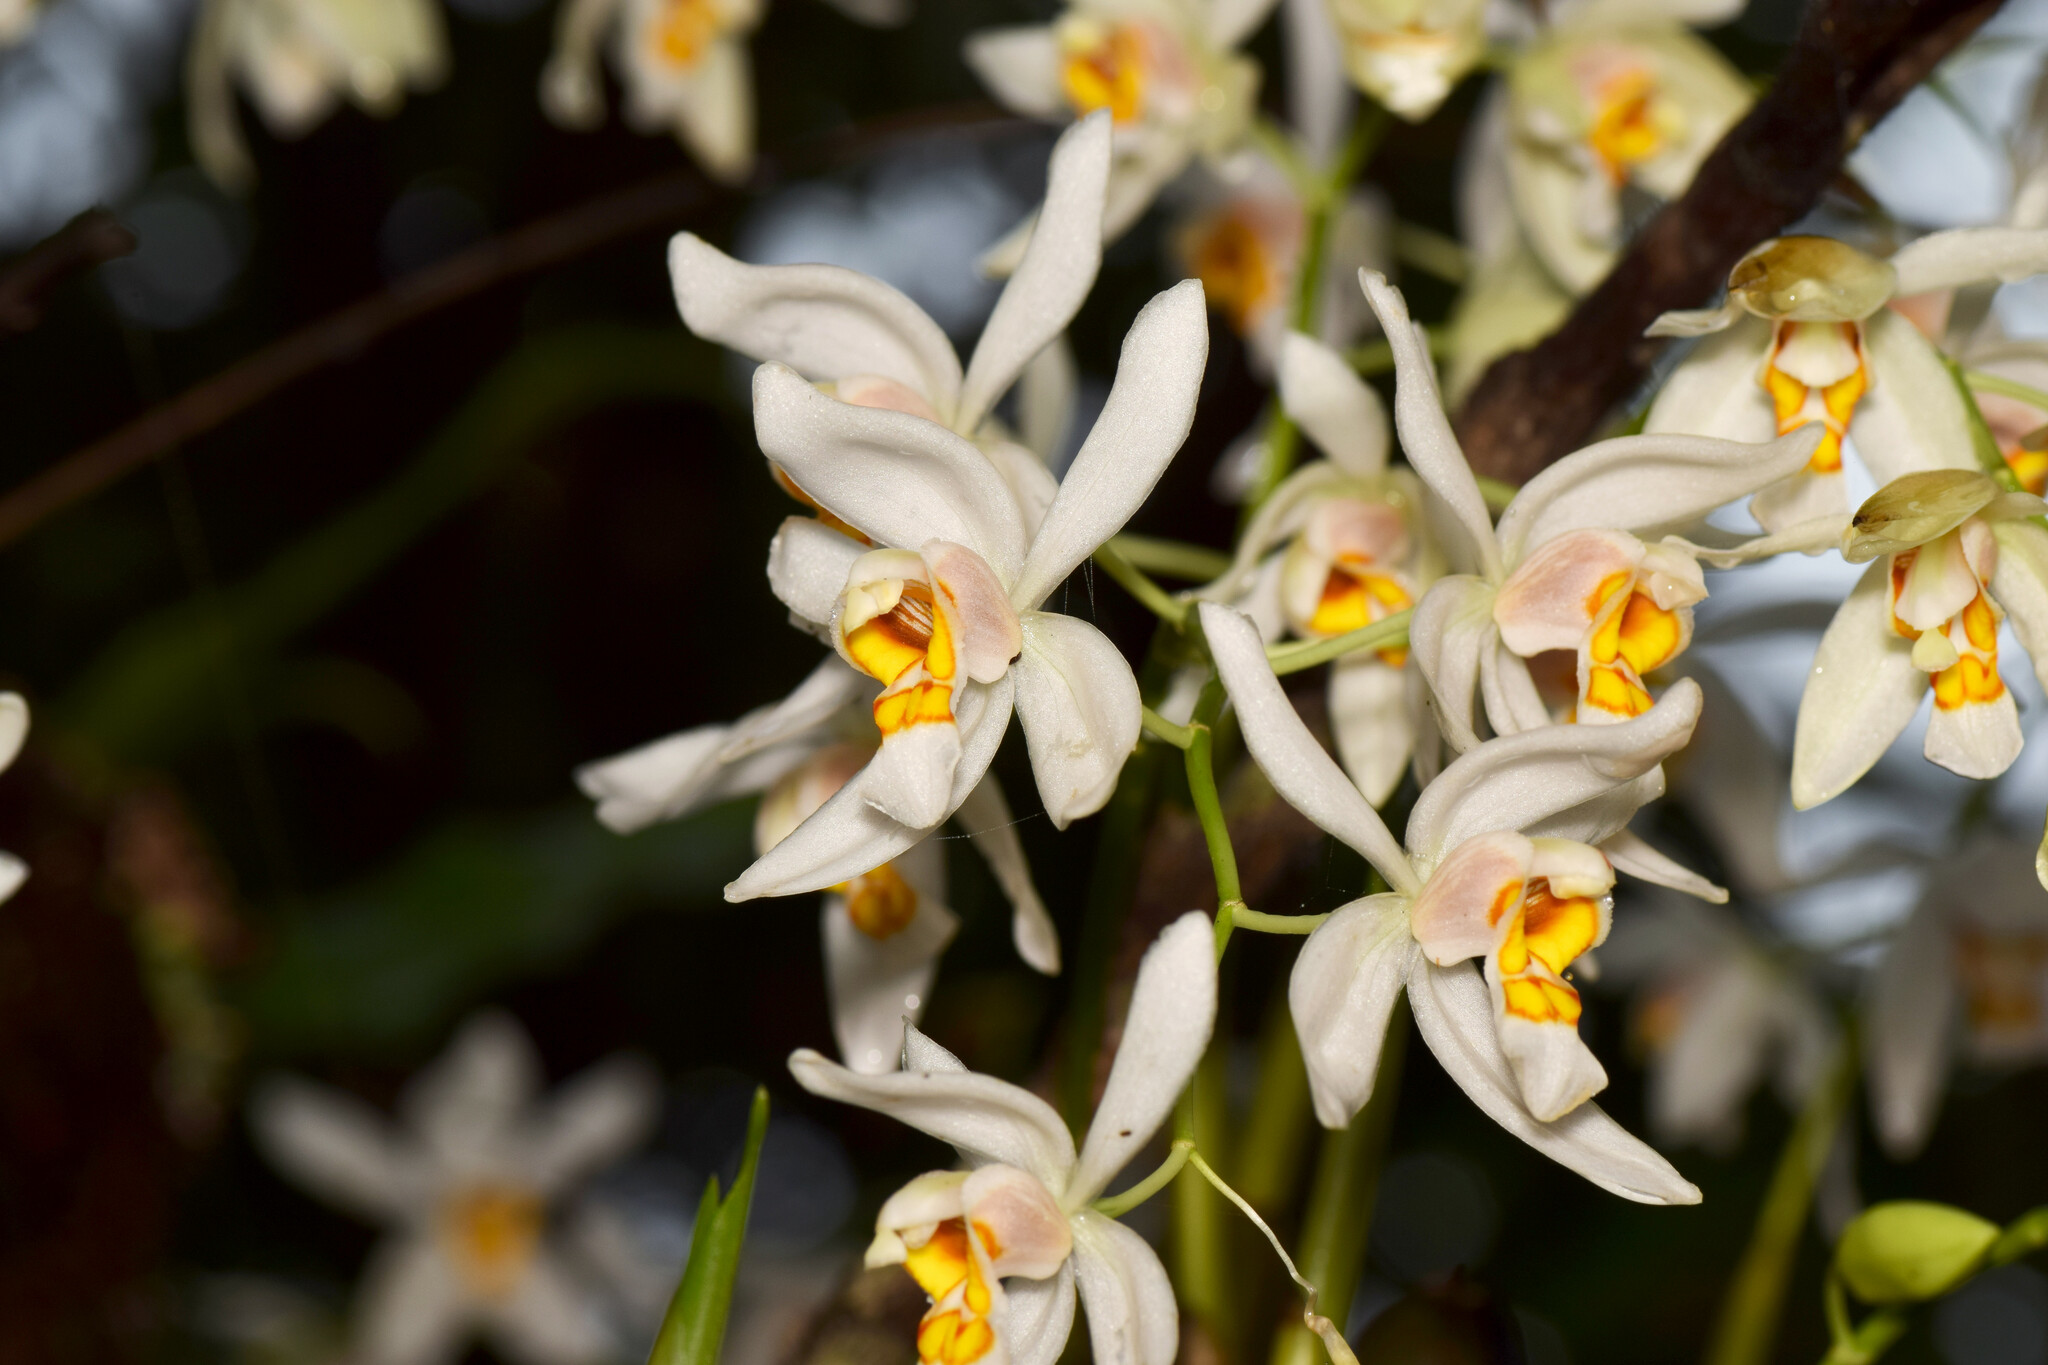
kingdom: Plantae
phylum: Tracheophyta
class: Liliopsida
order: Asparagales
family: Orchidaceae
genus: Coelogyne
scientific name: Coelogyne nitida
